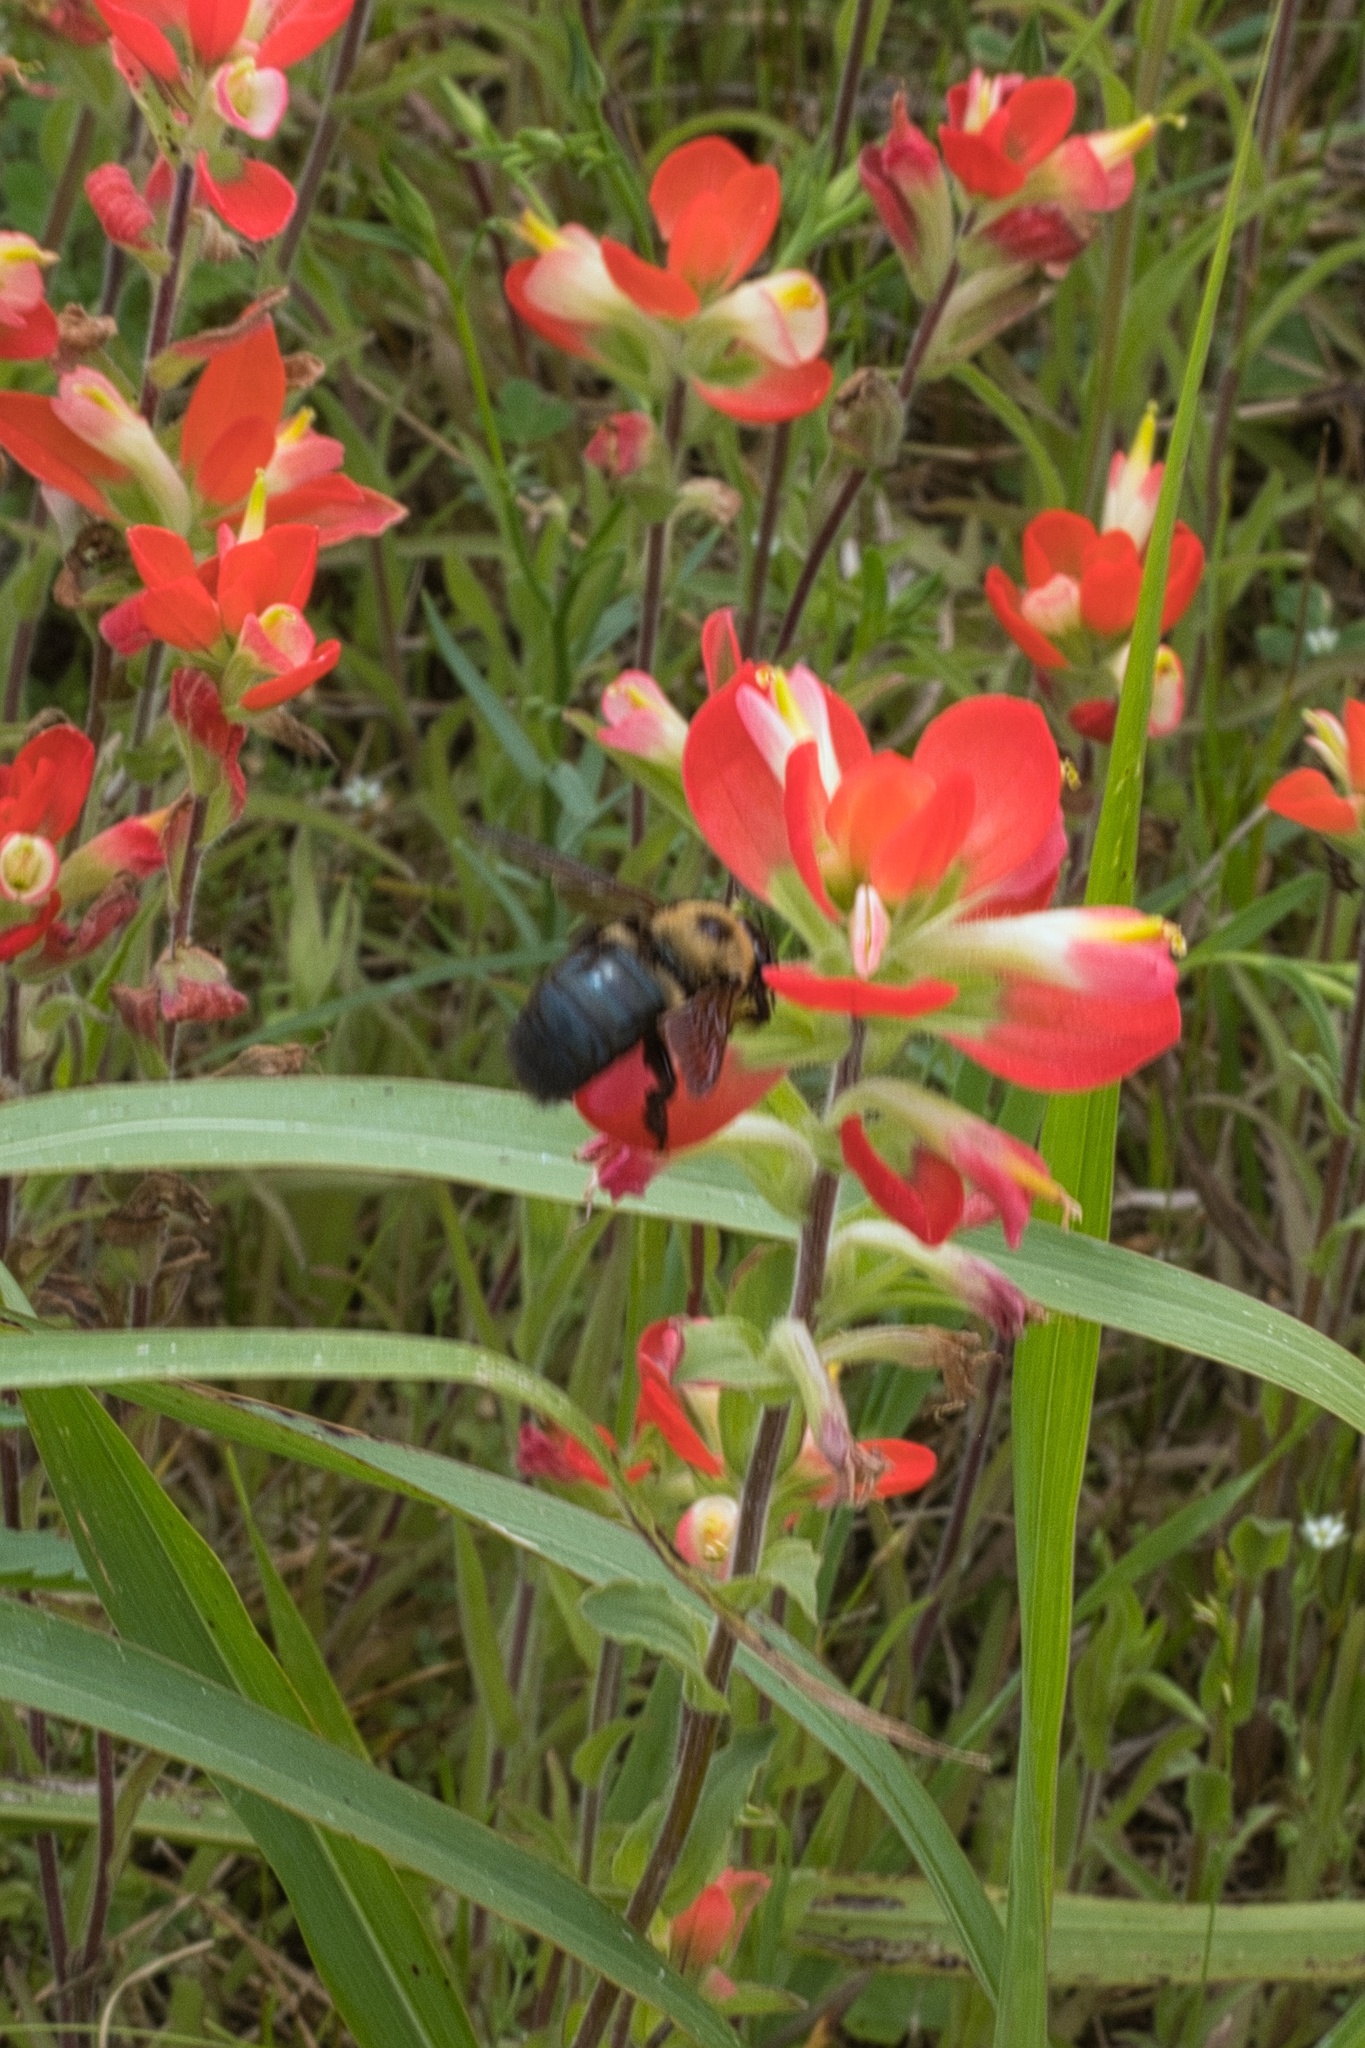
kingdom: Animalia
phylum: Arthropoda
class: Insecta
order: Hymenoptera
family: Apidae
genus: Xylocopa
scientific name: Xylocopa virginica
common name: Carpenter bee
